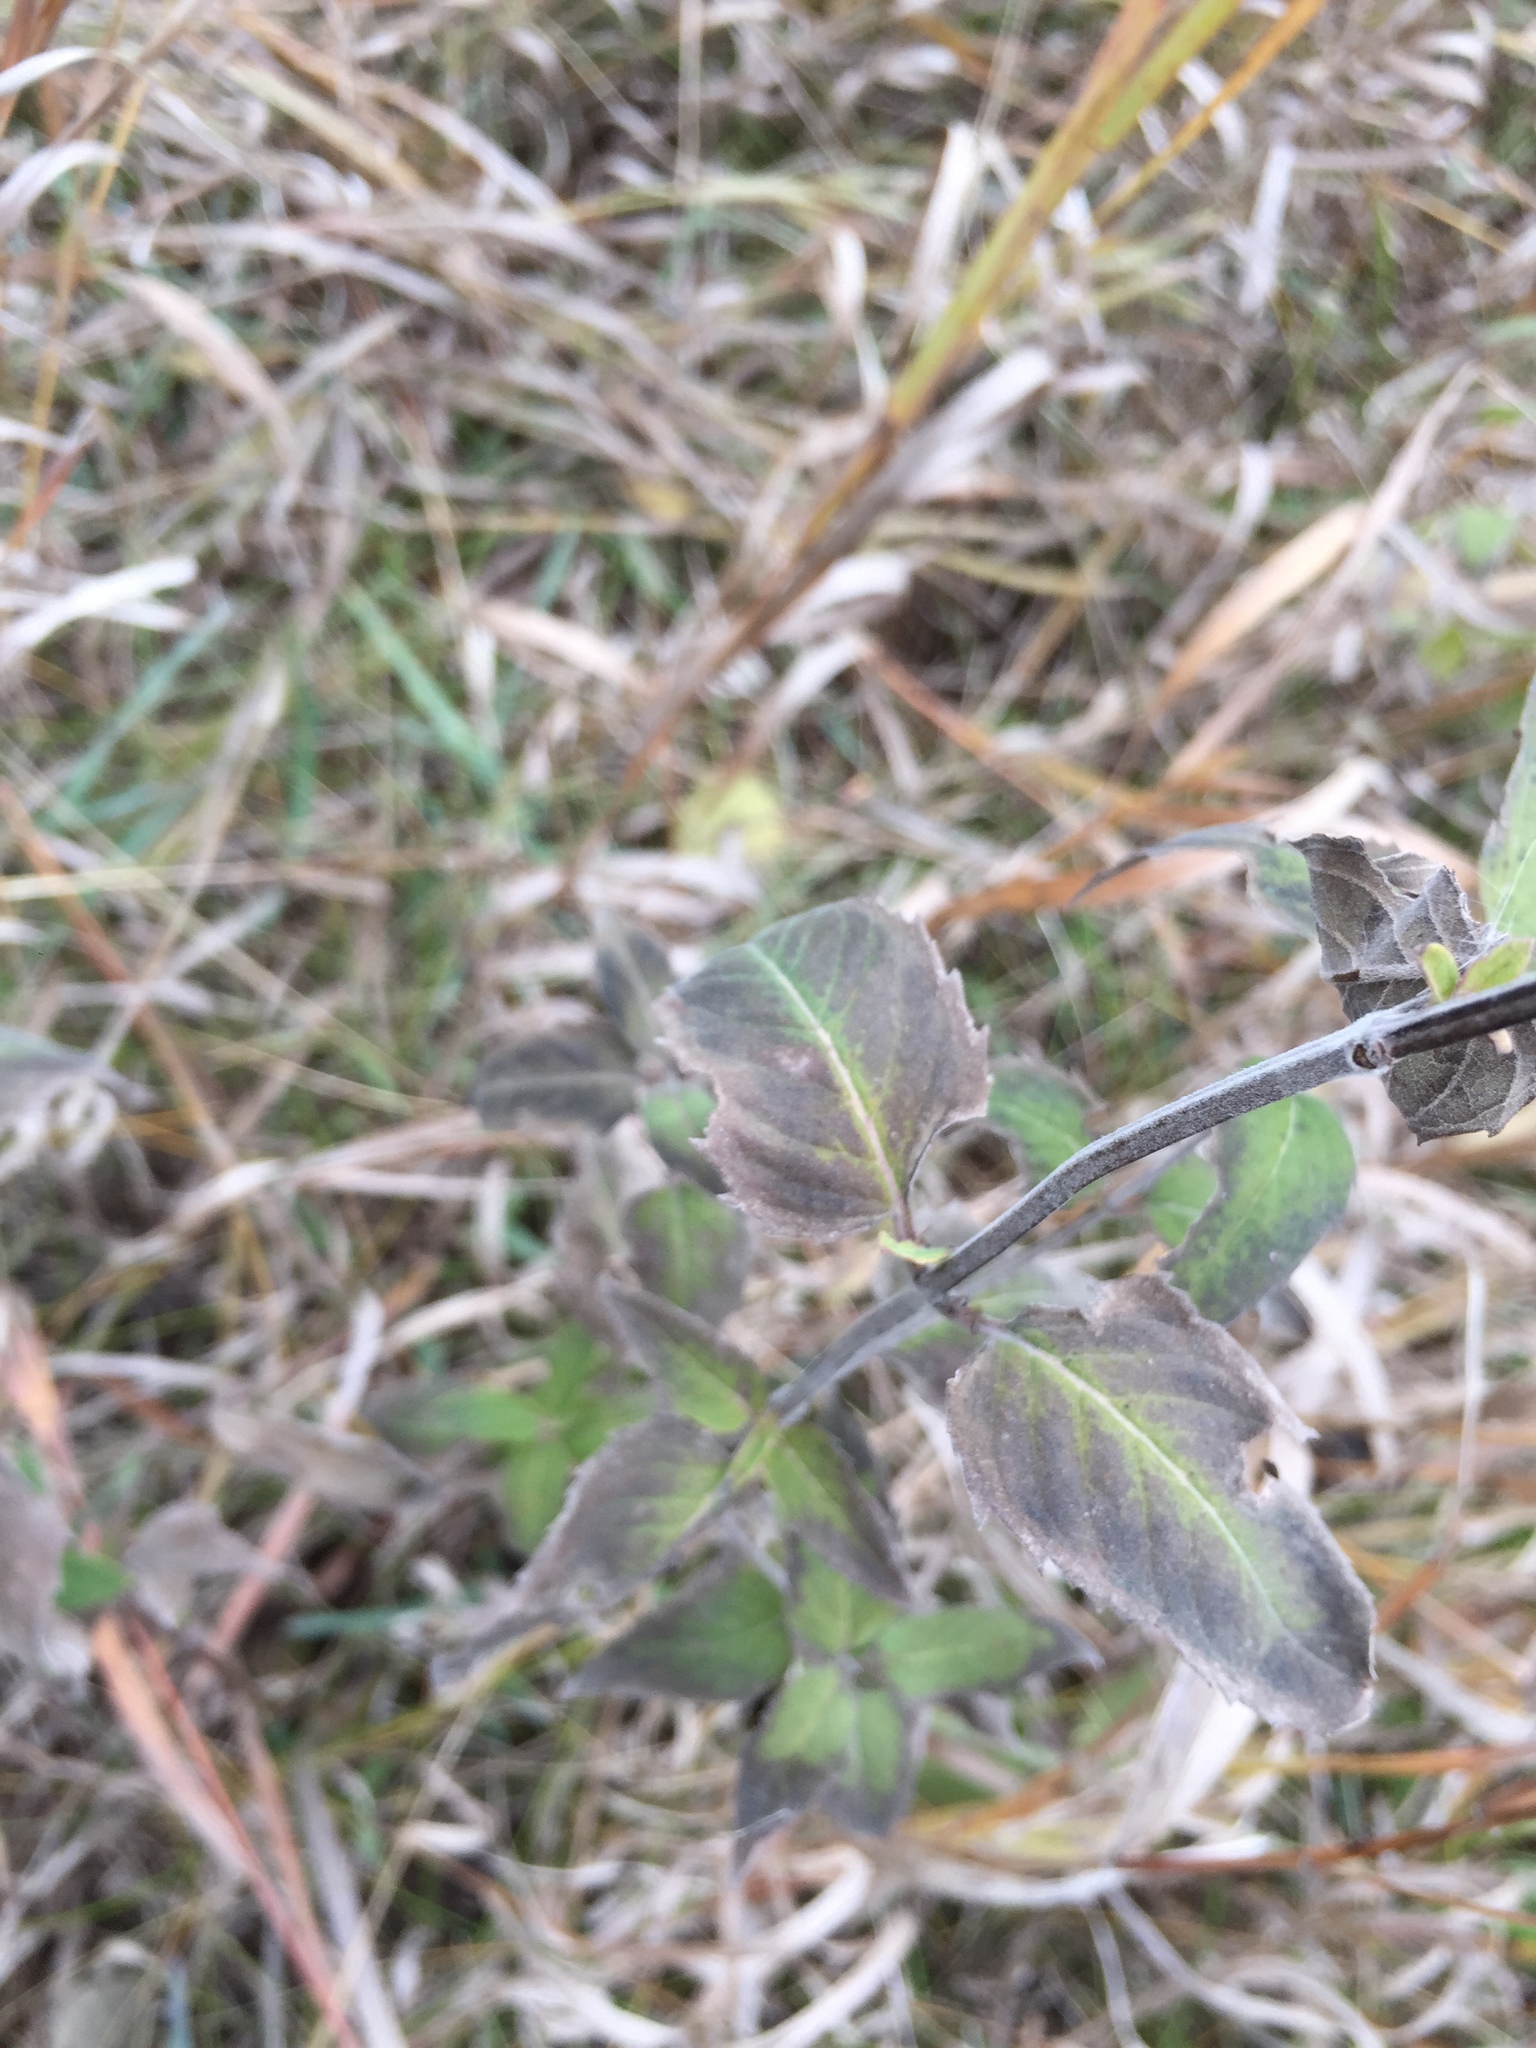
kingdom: Plantae
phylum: Tracheophyta
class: Magnoliopsida
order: Lamiales
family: Lamiaceae
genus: Monarda
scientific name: Monarda fistulosa
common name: Purple beebalm
